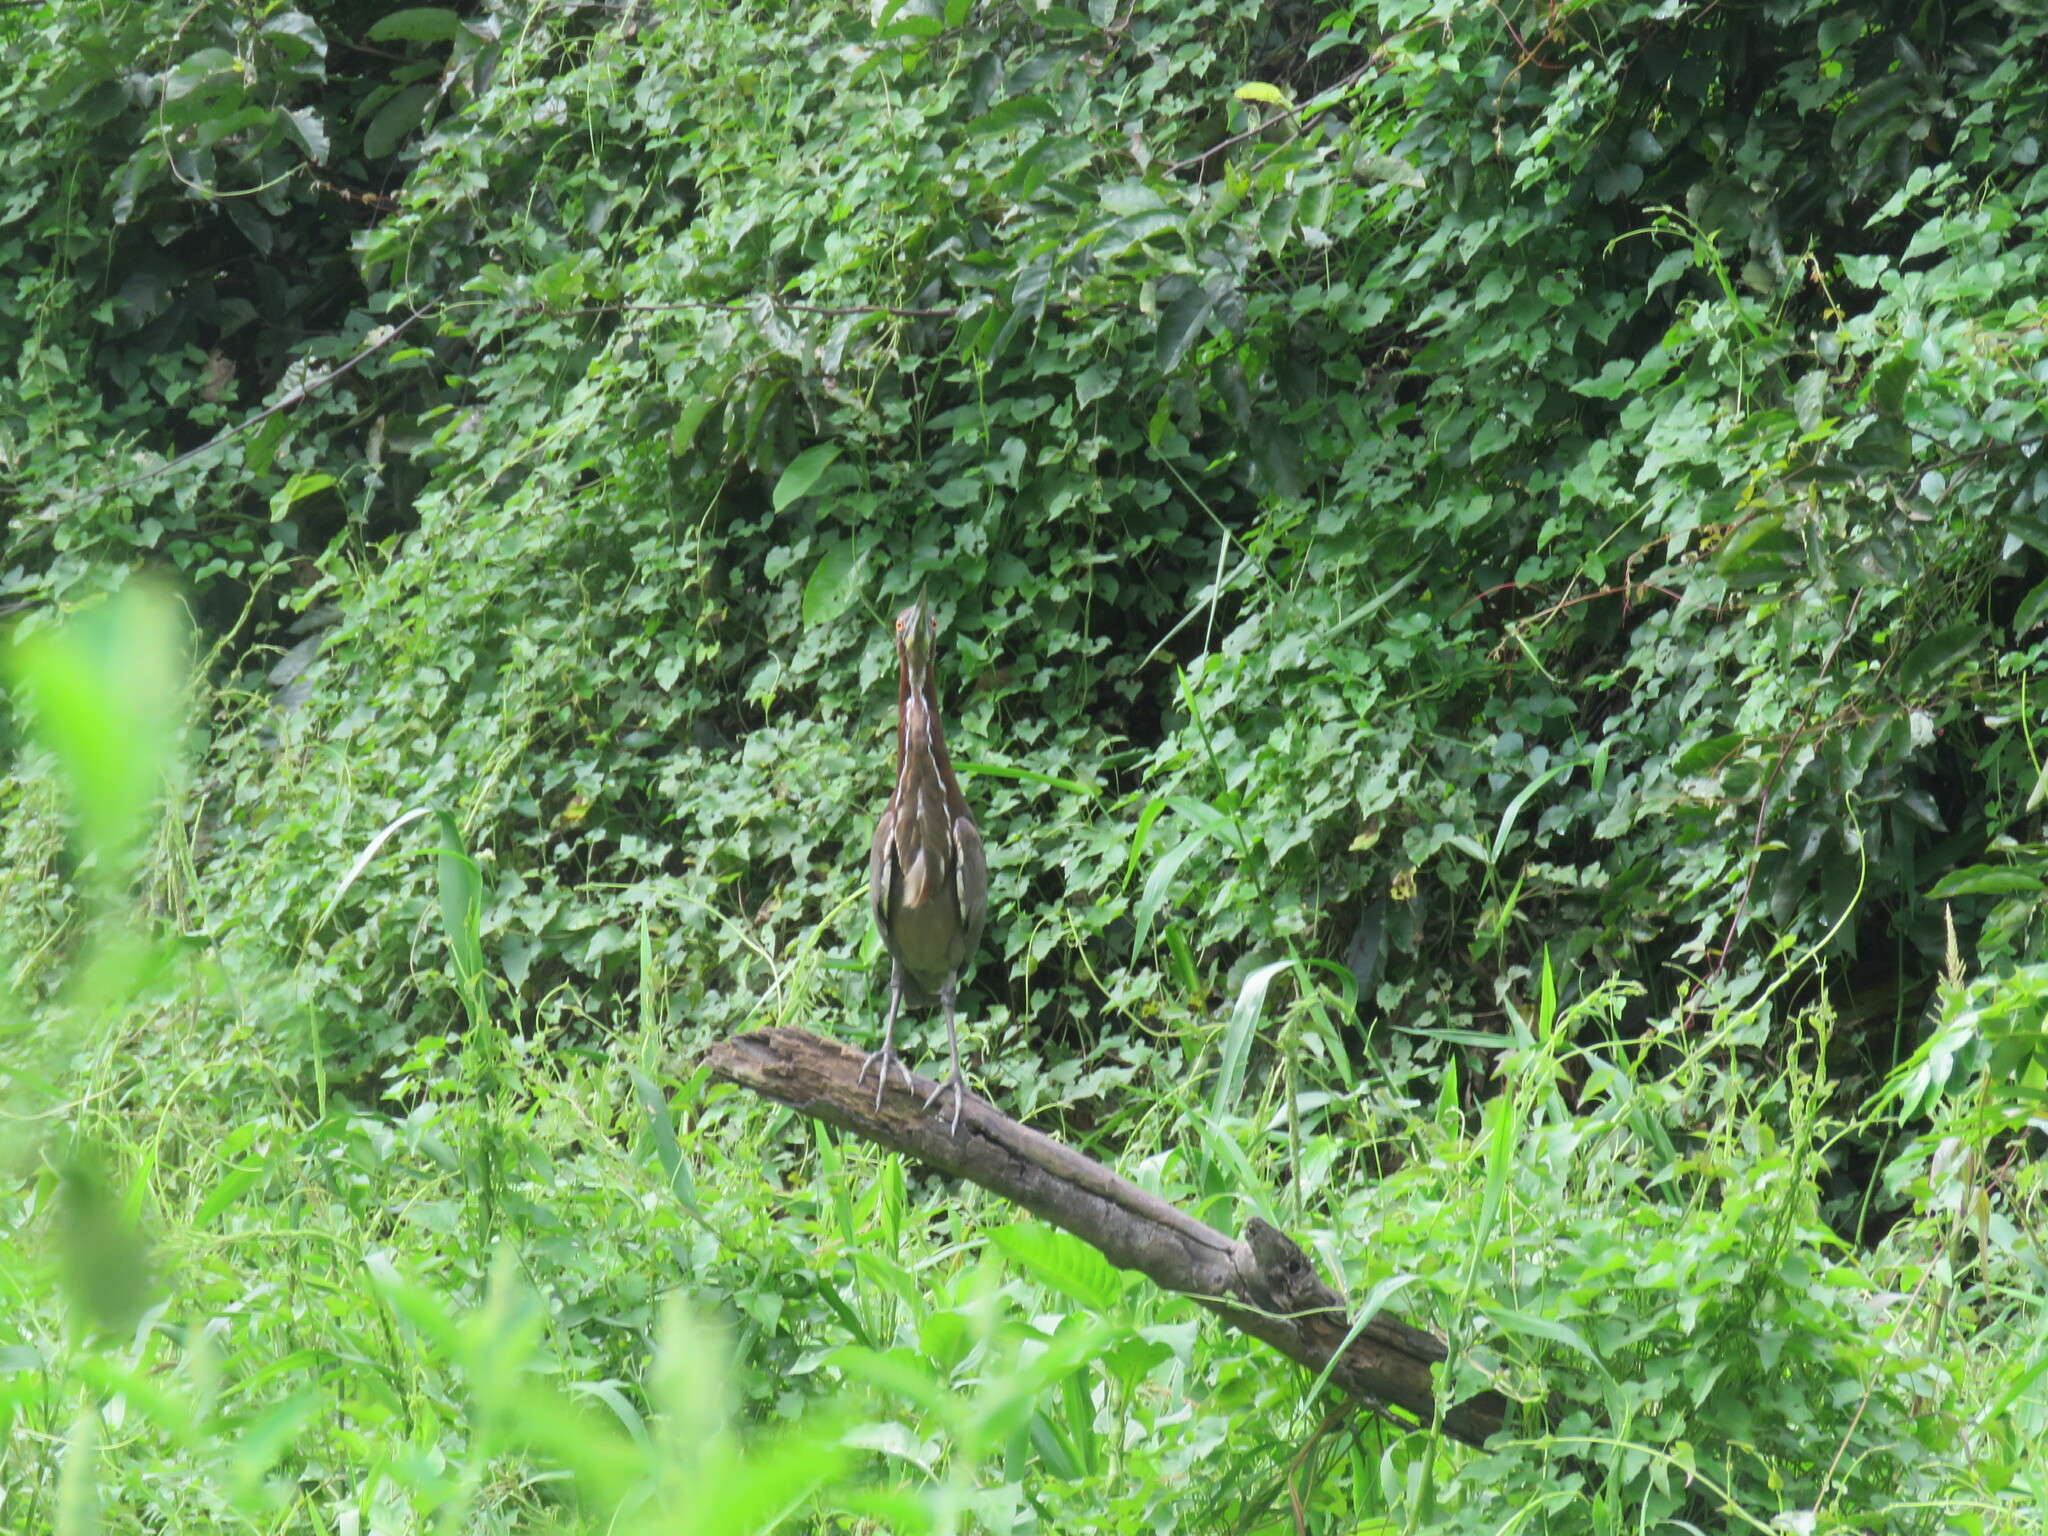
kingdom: Animalia
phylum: Chordata
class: Aves
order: Pelecaniformes
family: Ardeidae
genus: Tigrisoma
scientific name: Tigrisoma lineatum
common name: Rufescent tiger-heron
